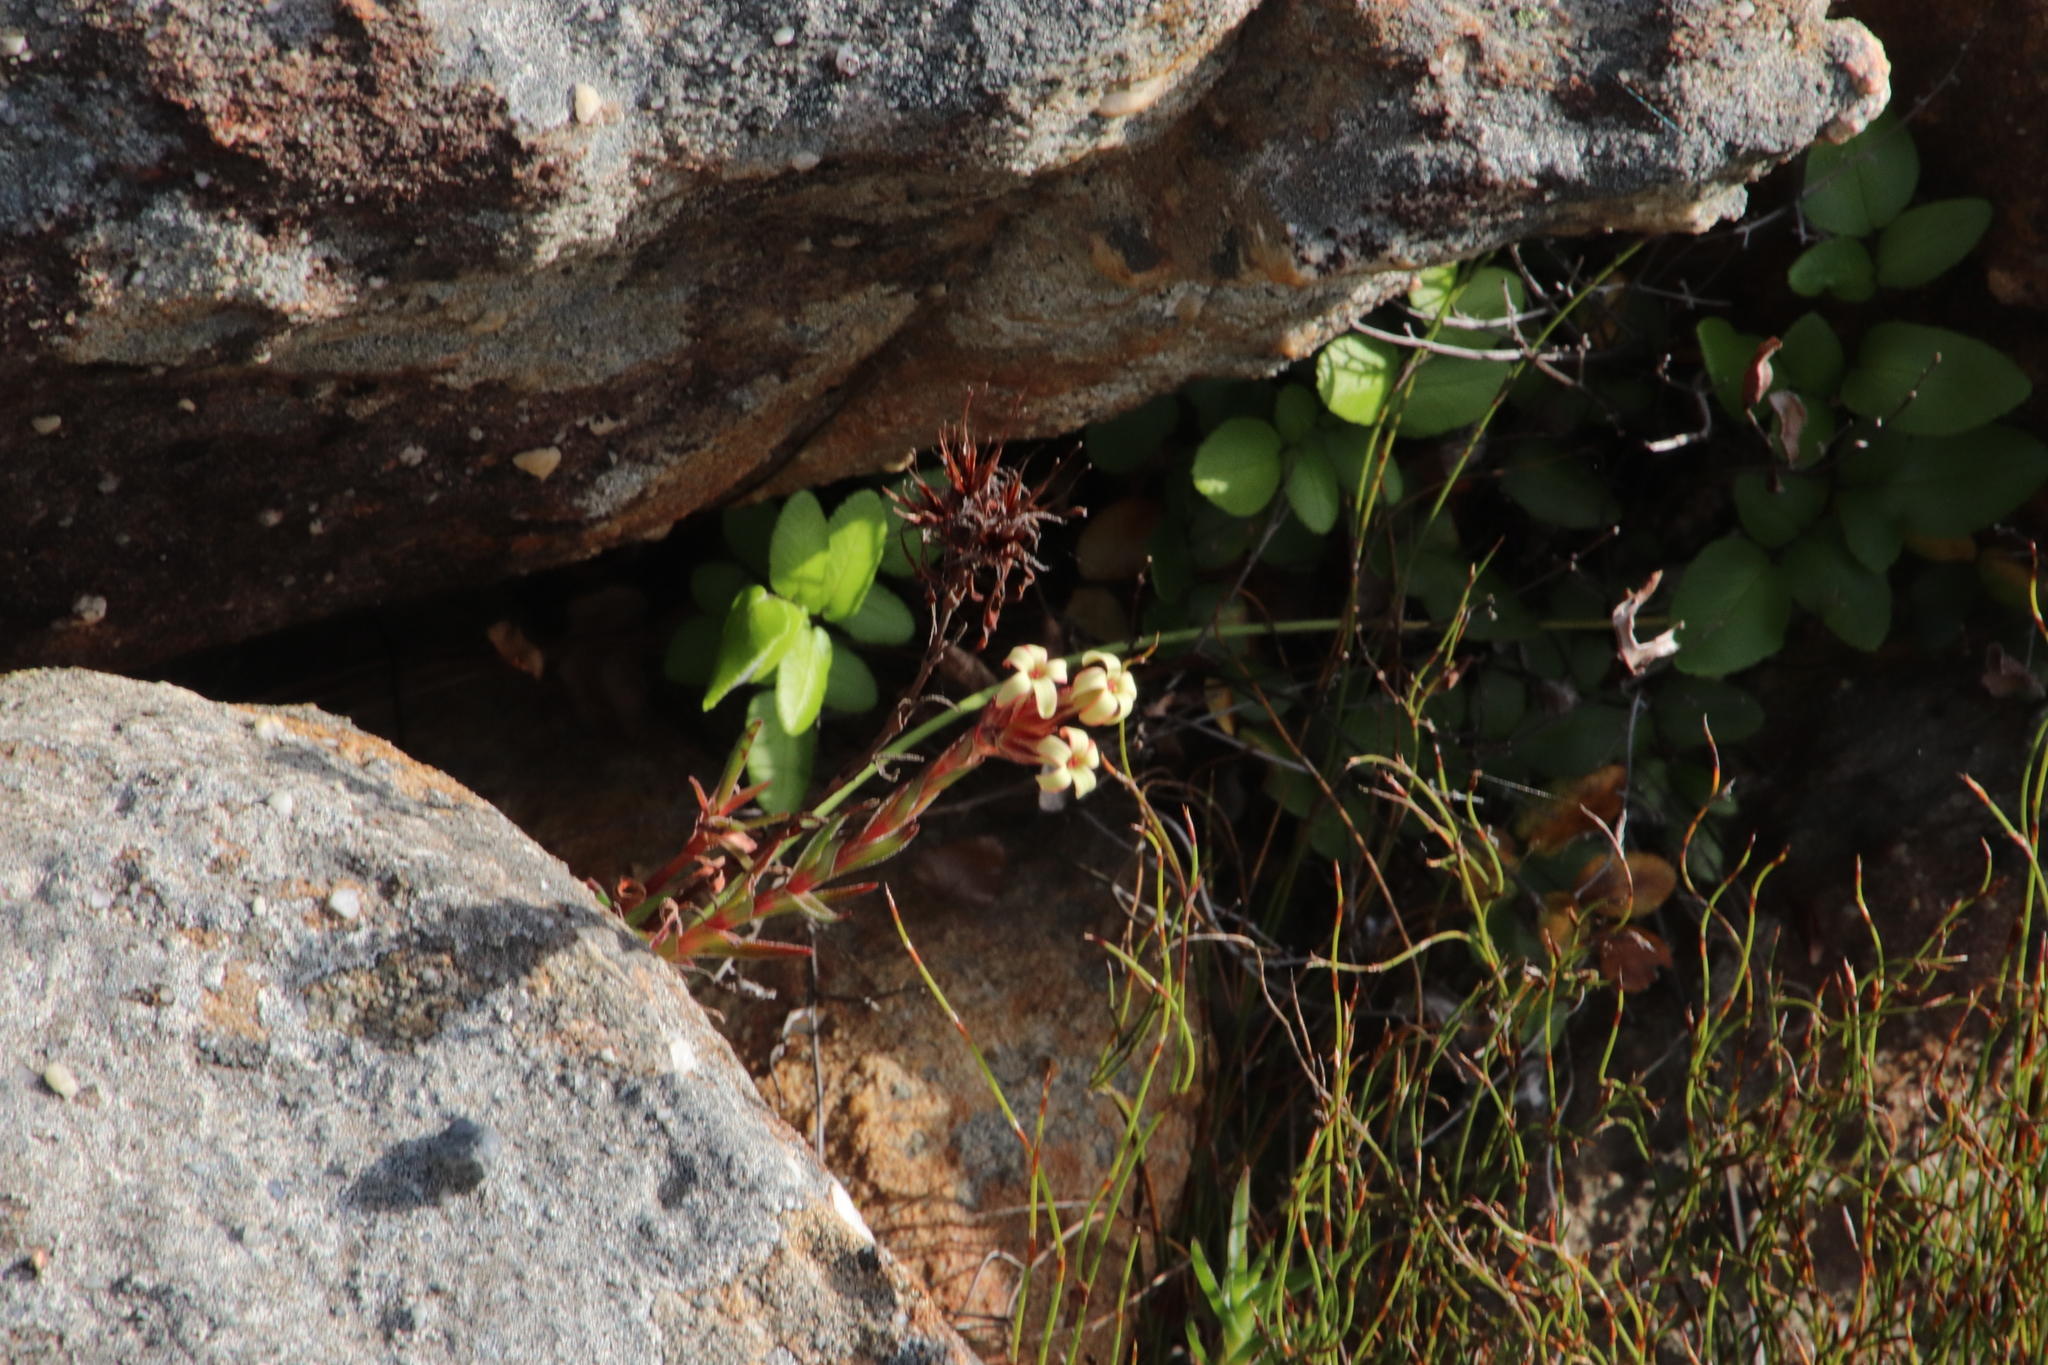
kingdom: Plantae
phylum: Tracheophyta
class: Magnoliopsida
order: Saxifragales
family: Crassulaceae
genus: Crassula
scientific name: Crassula fascicularis
